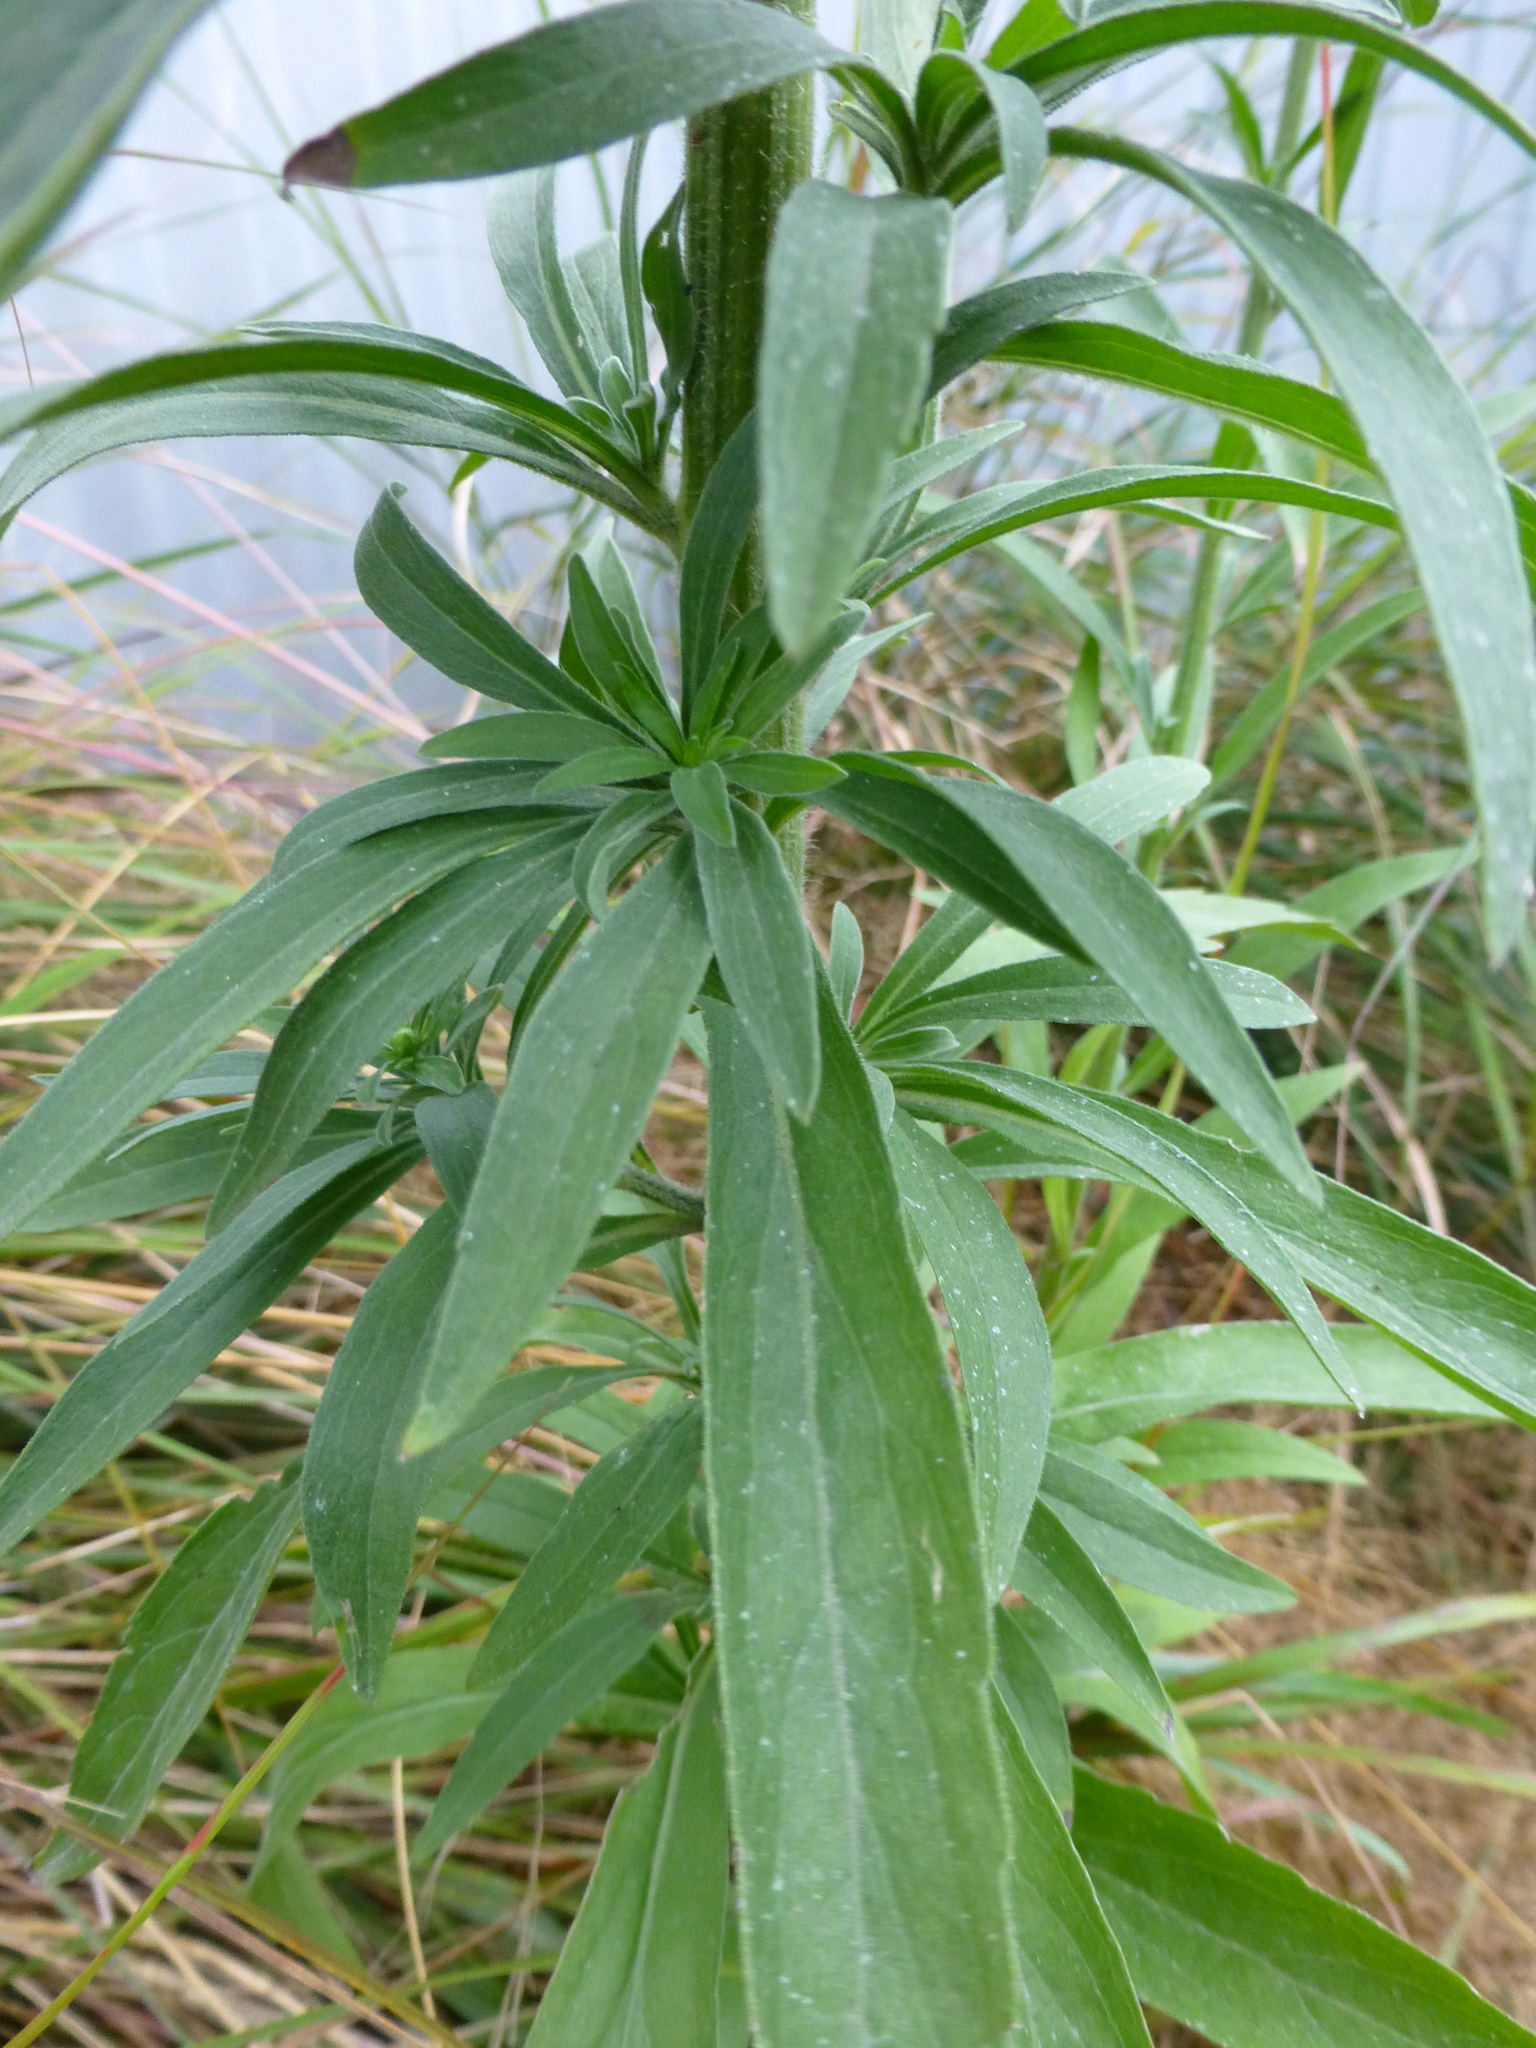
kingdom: Plantae
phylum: Tracheophyta
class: Magnoliopsida
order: Asterales
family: Asteraceae
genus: Erigeron
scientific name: Erigeron sumatrensis
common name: Daisy
